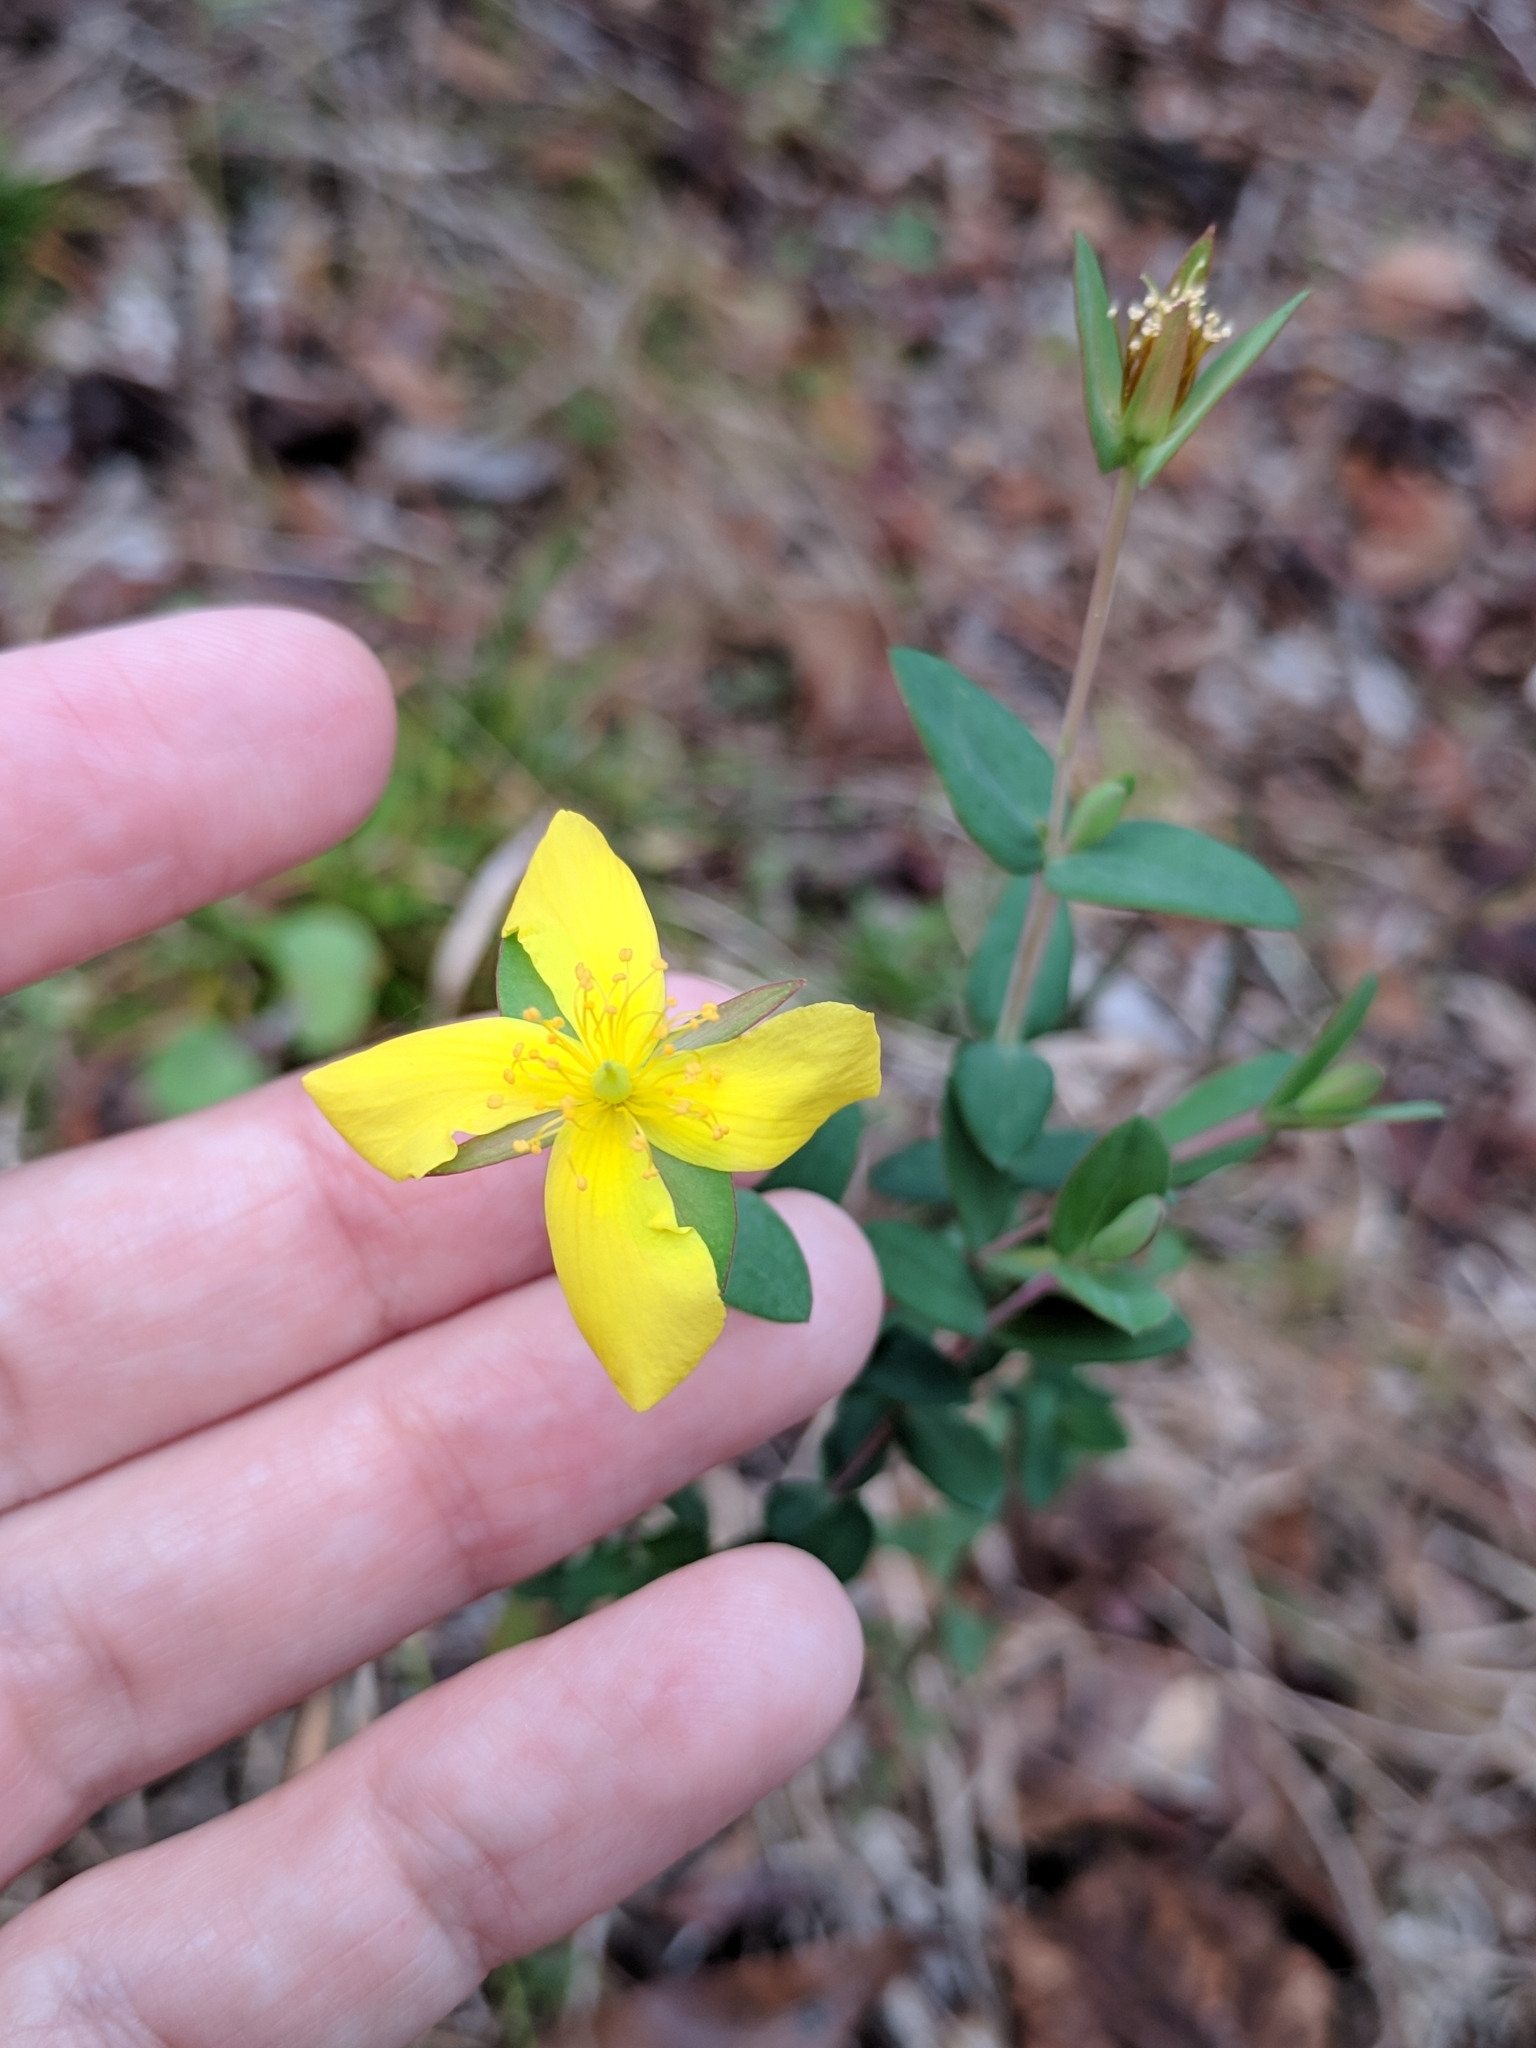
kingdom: Plantae
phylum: Tracheophyta
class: Magnoliopsida
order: Malpighiales
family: Hypericaceae
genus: Hypericum
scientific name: Hypericum tetrapetalum
